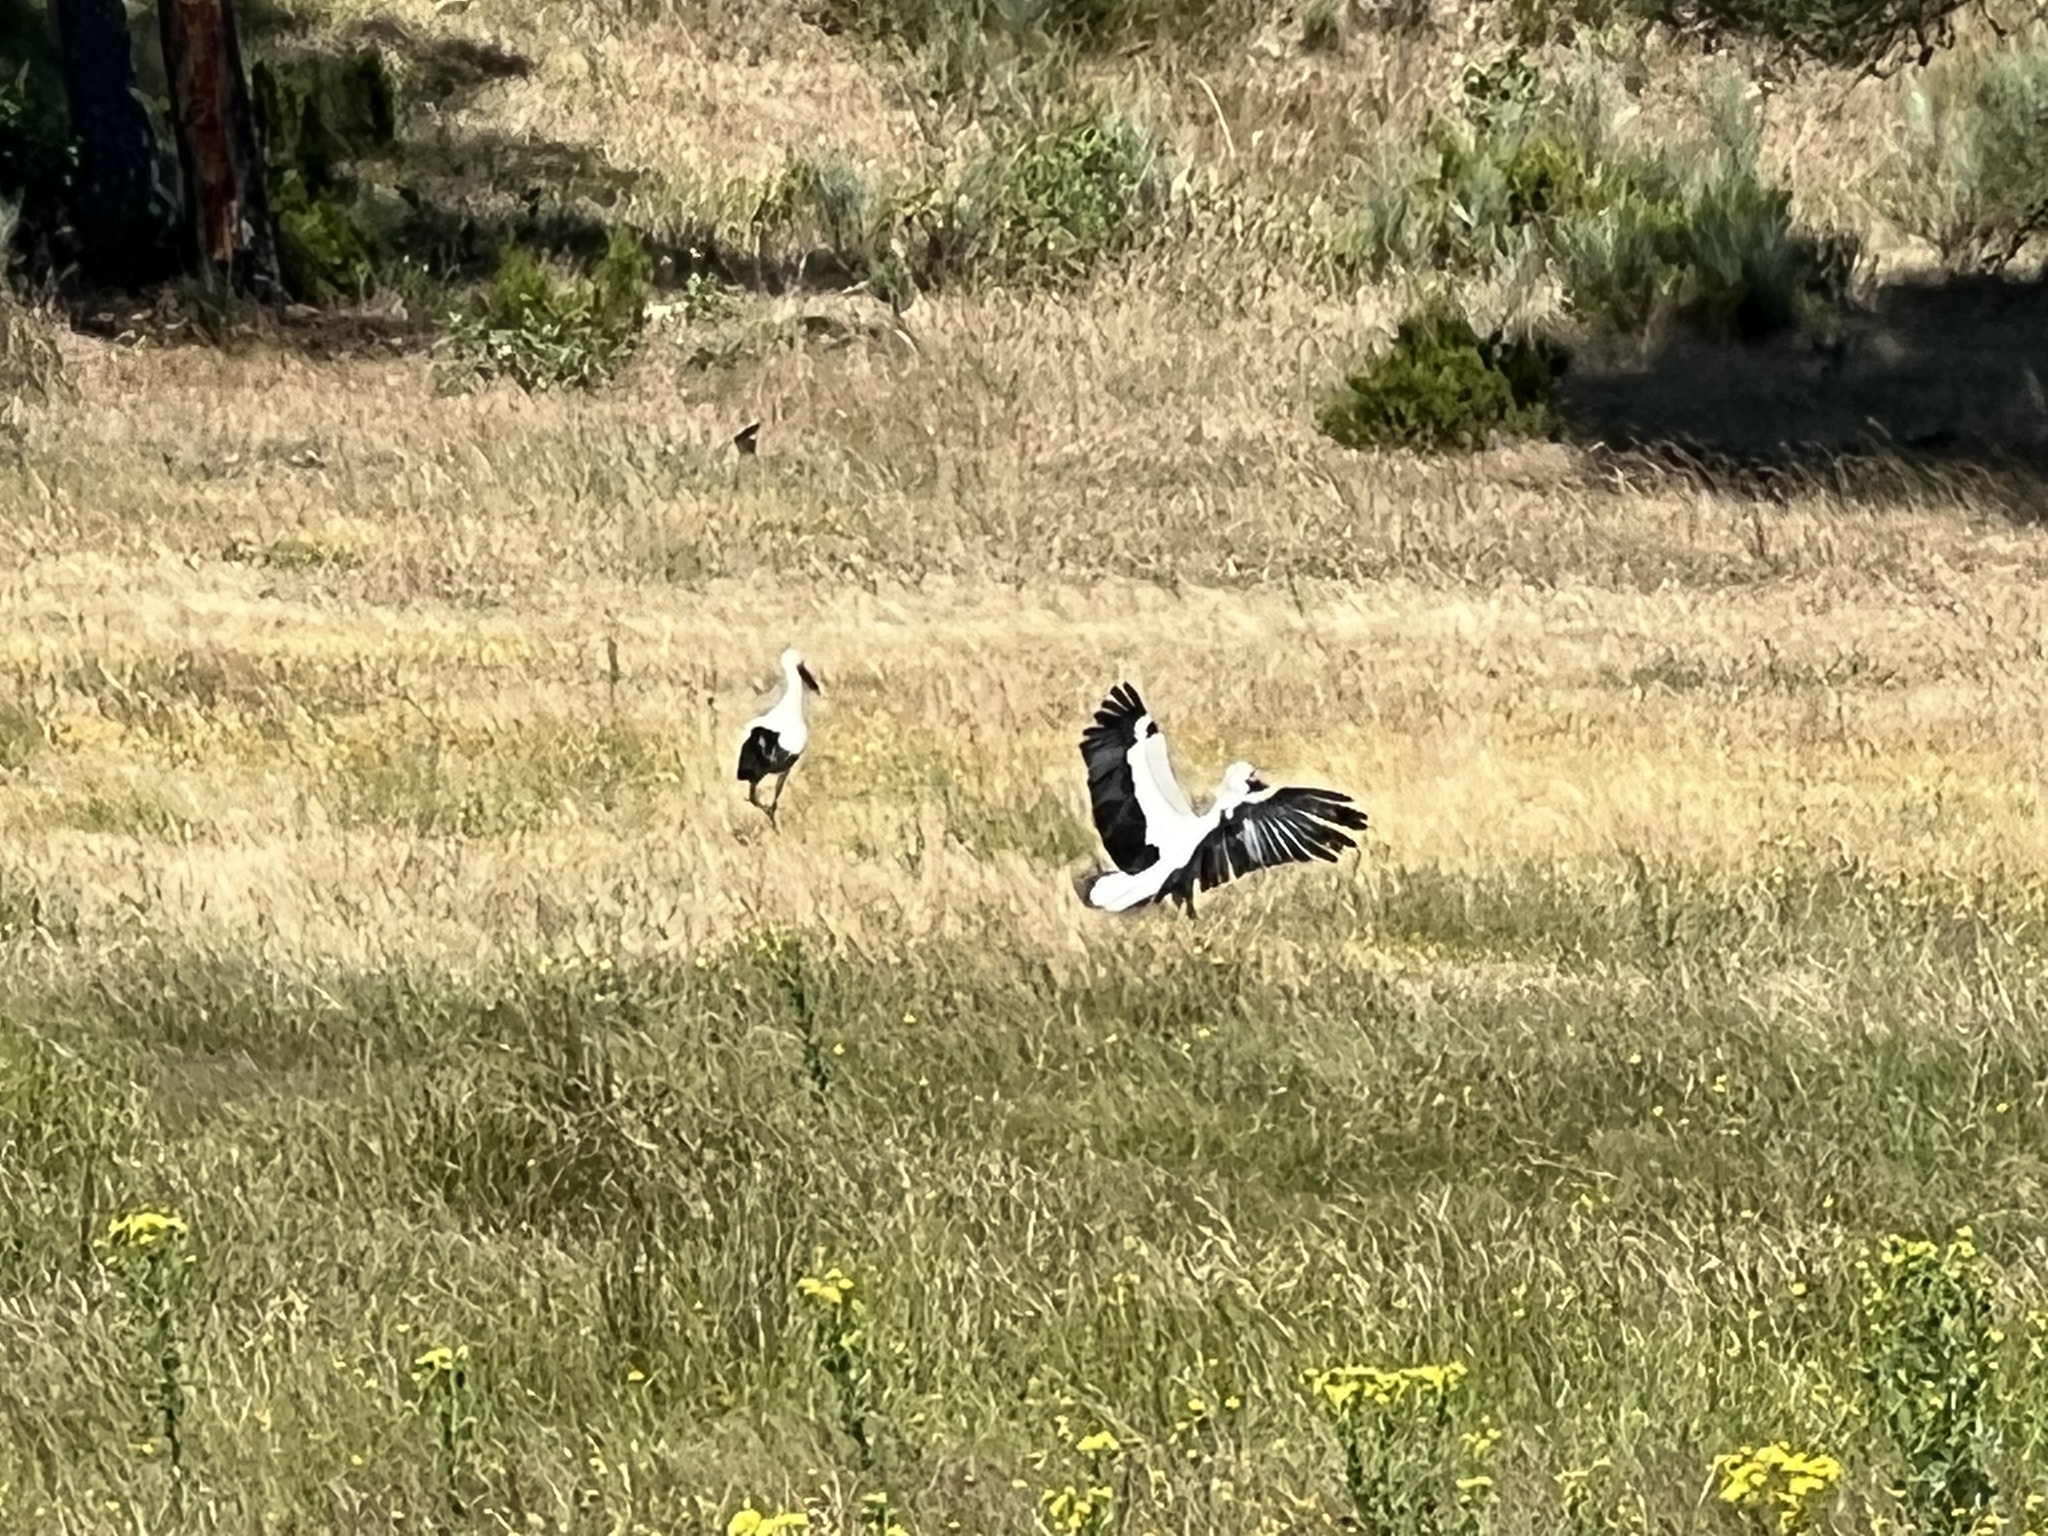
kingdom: Animalia
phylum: Chordata
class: Aves
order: Ciconiiformes
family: Ciconiidae
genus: Ciconia
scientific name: Ciconia ciconia
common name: White stork
